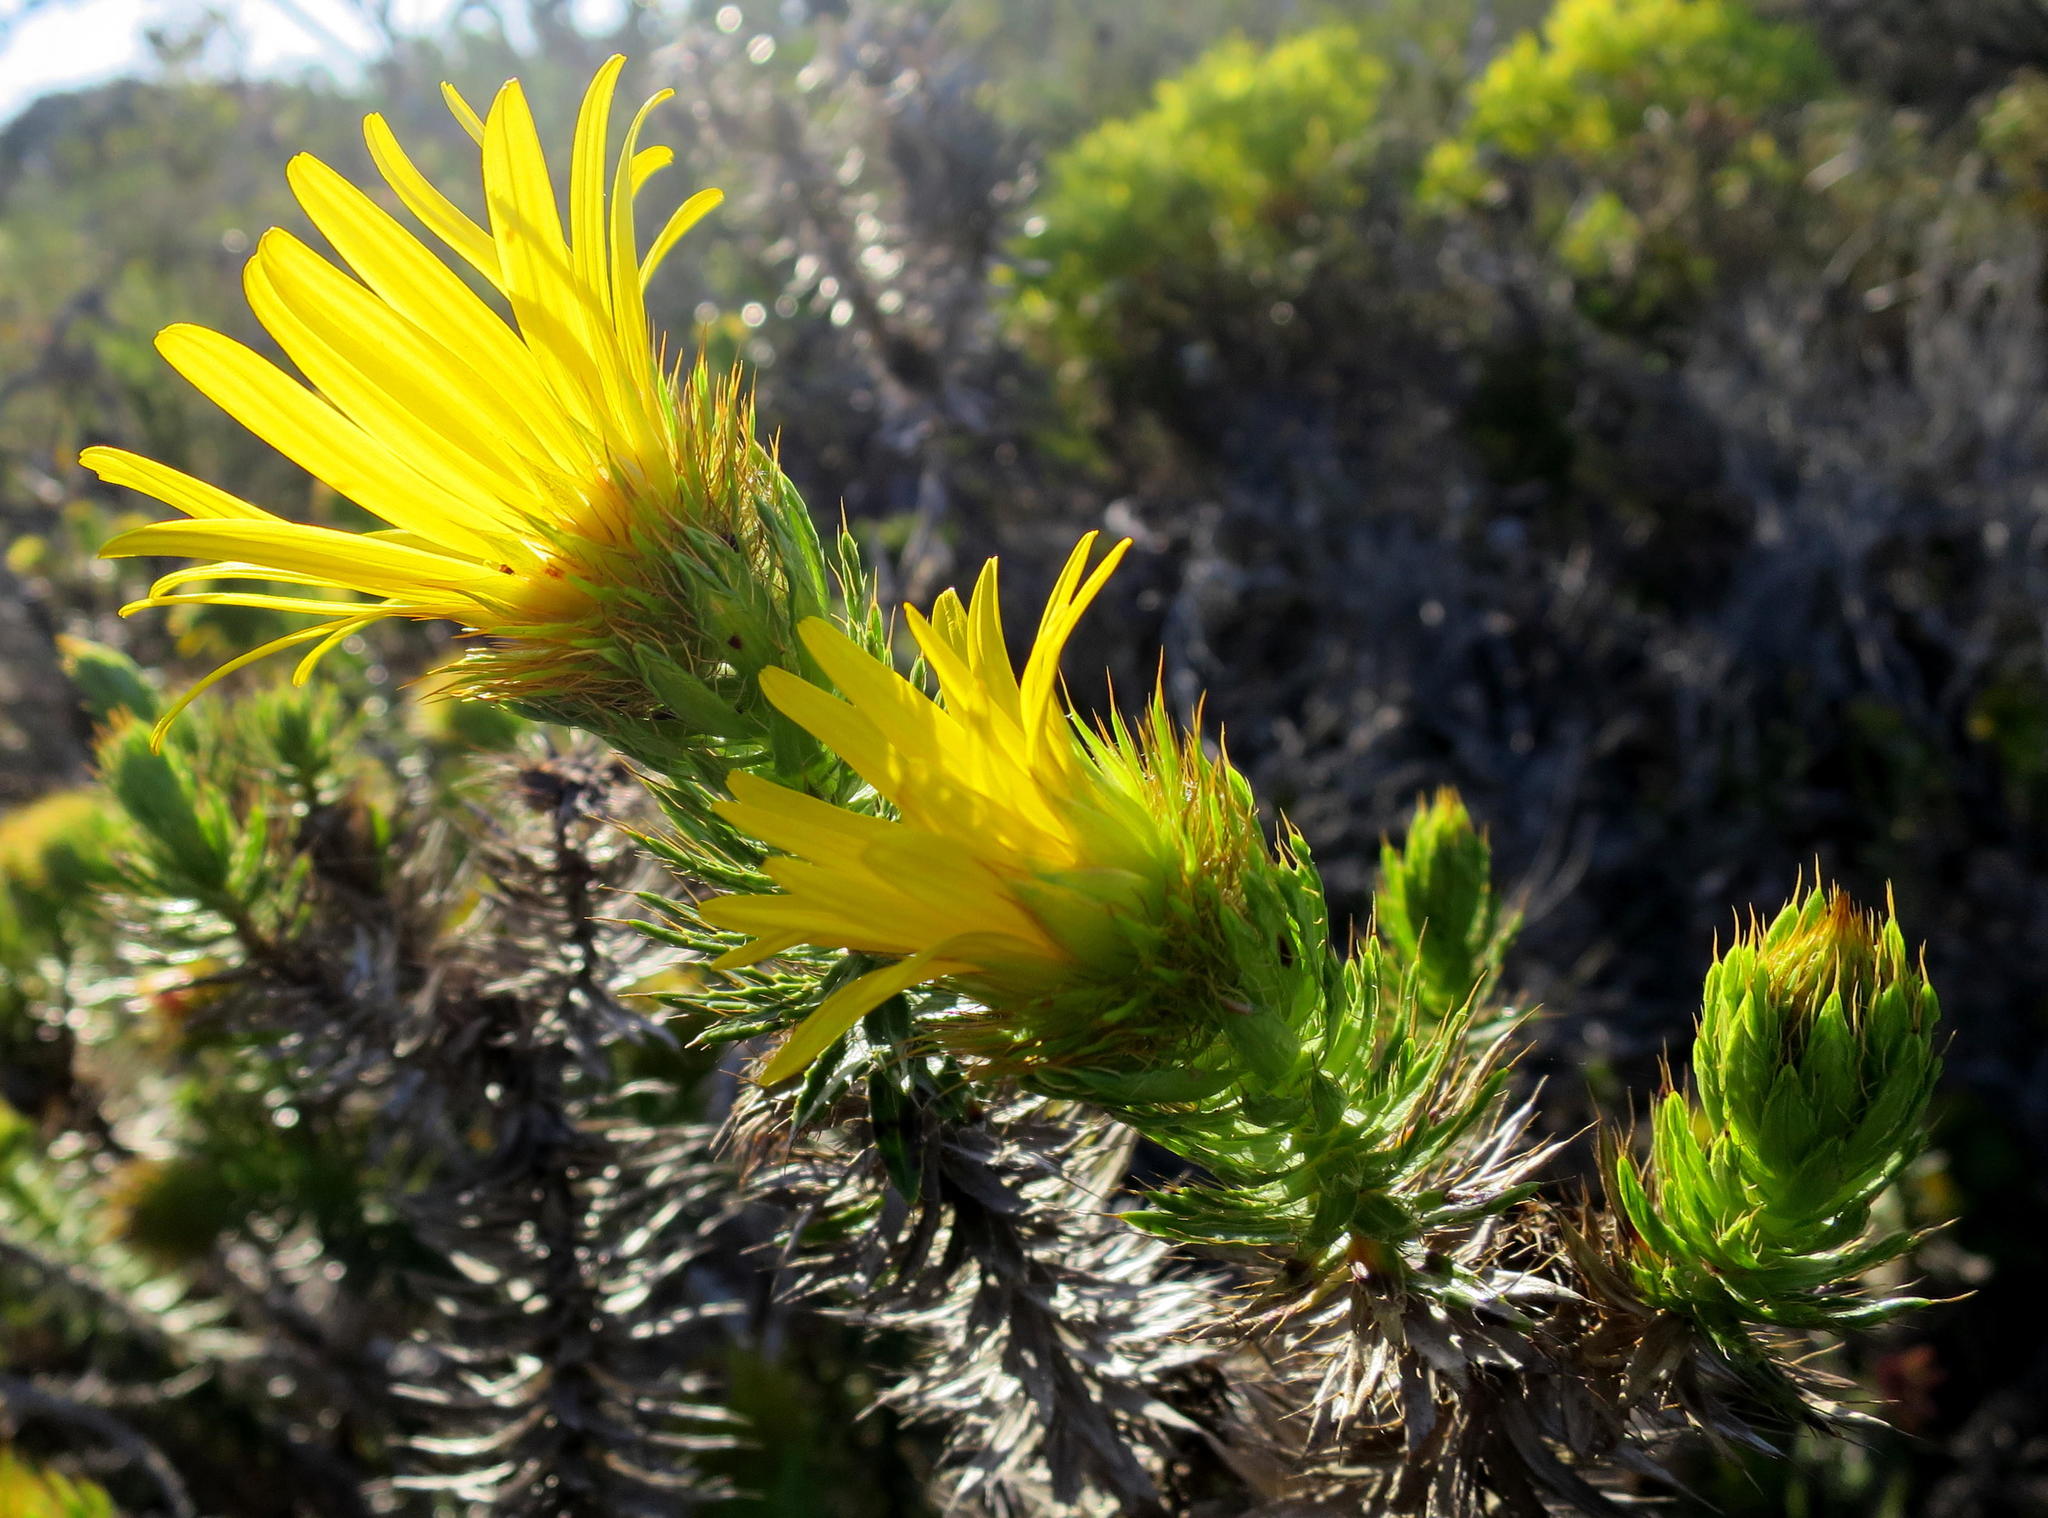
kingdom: Plantae
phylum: Tracheophyta
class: Magnoliopsida
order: Asterales
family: Asteraceae
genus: Cullumia
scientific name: Cullumia carlinoides
